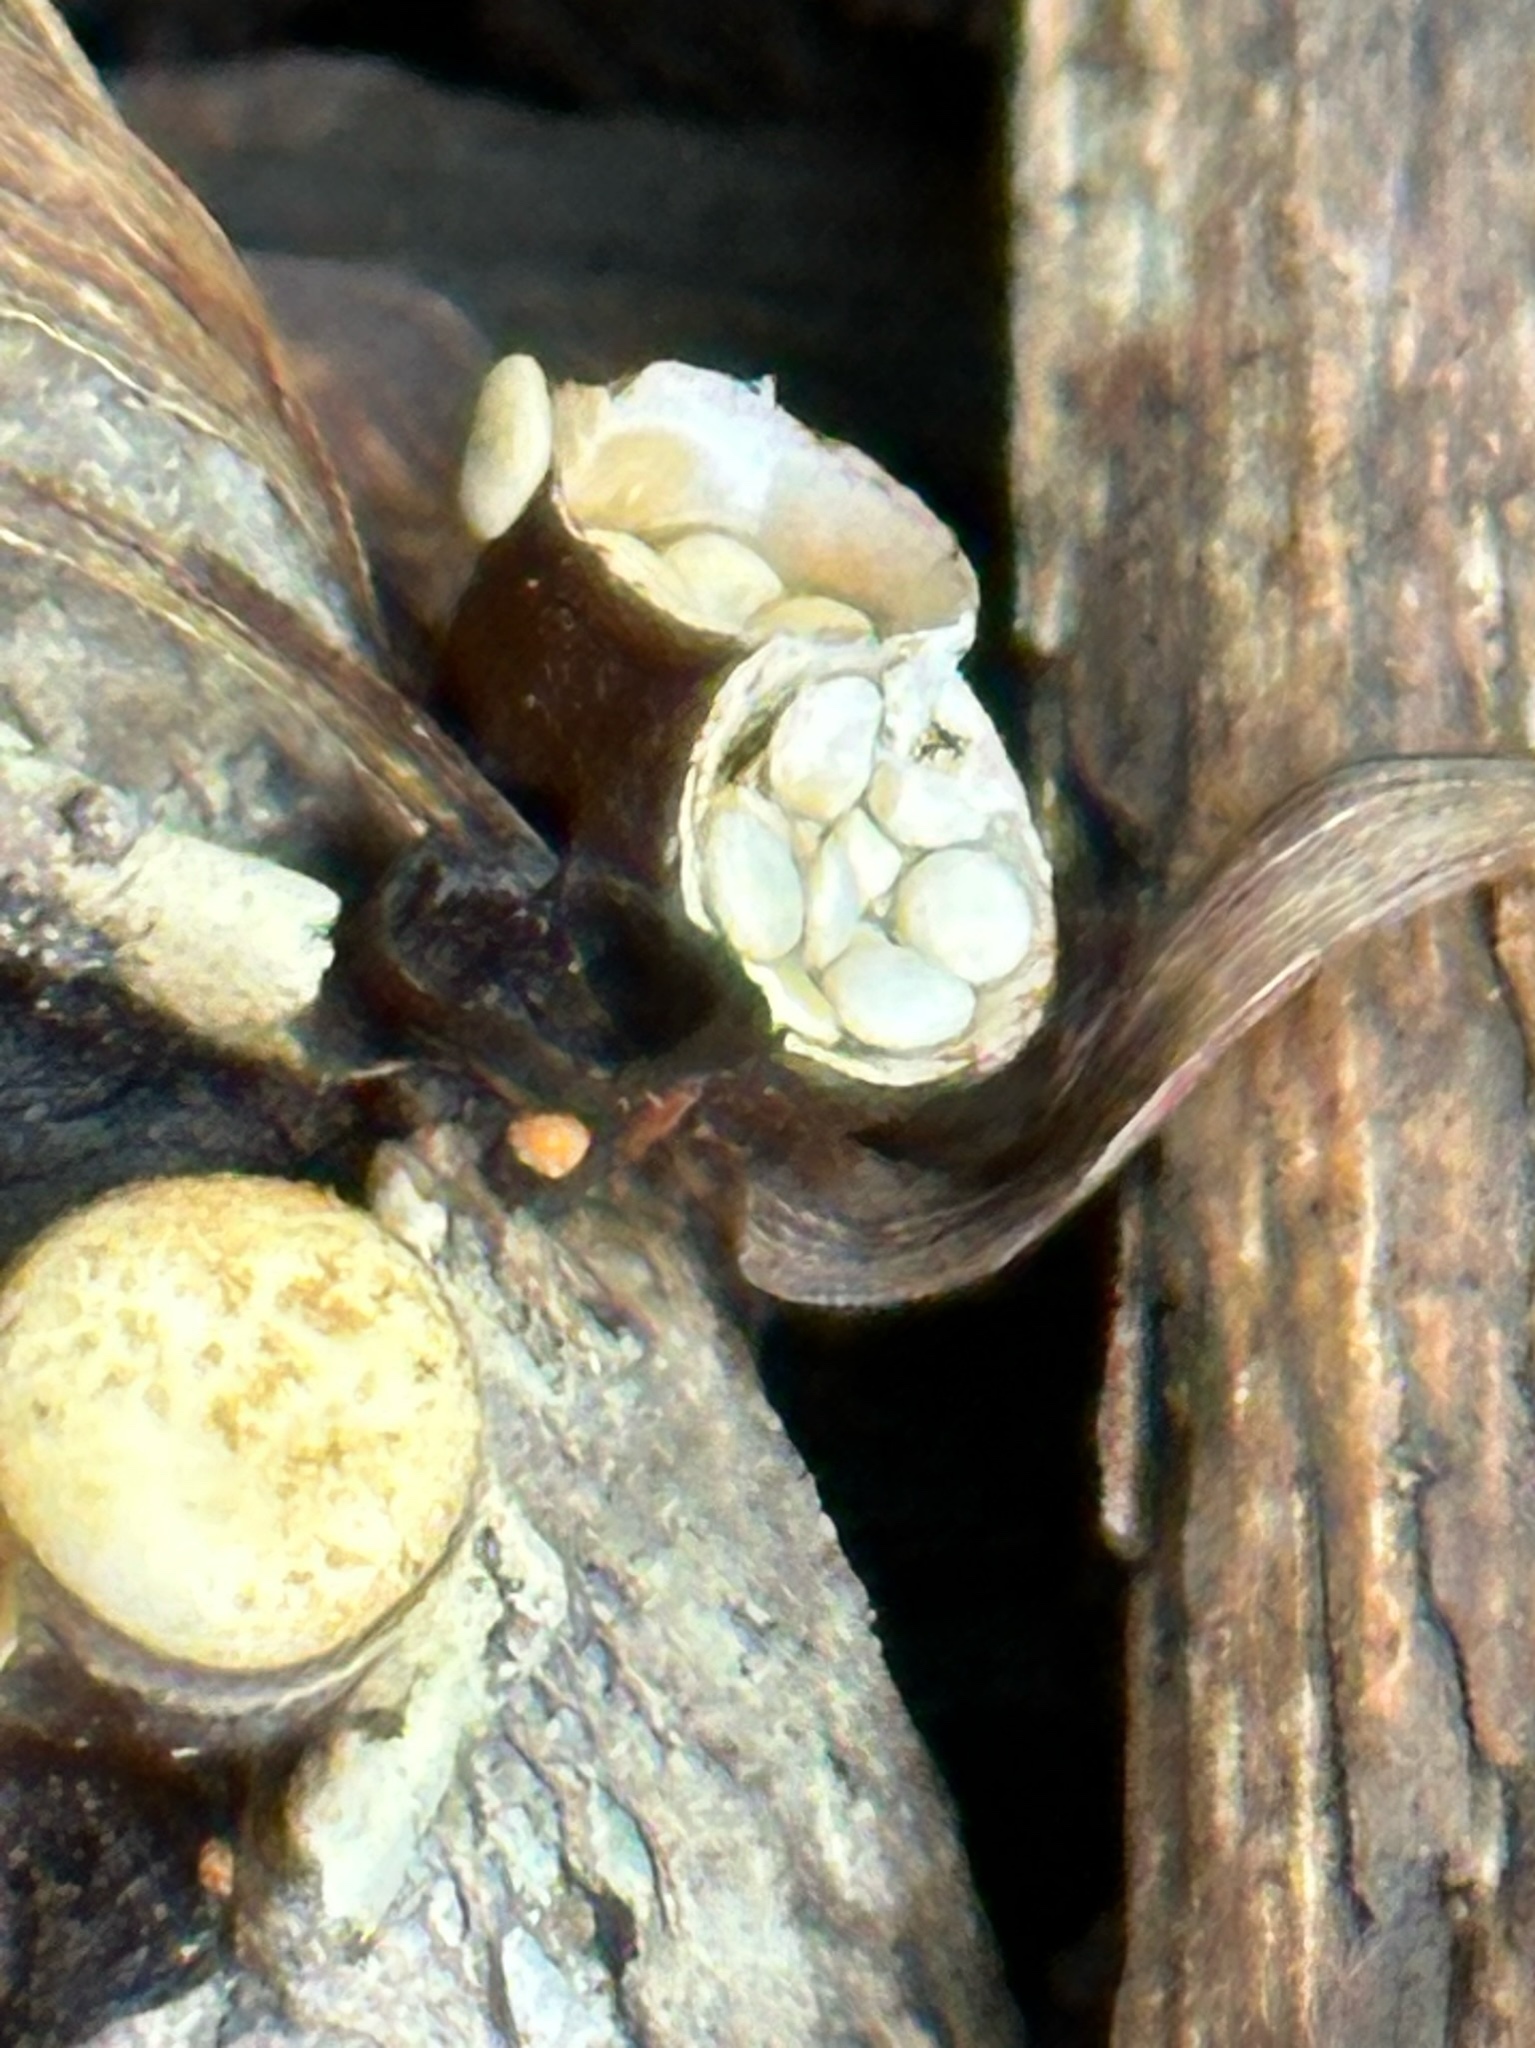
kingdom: Fungi
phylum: Basidiomycota
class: Agaricomycetes
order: Agaricales
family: Nidulariaceae
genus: Crucibulum
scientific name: Crucibulum laeve
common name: Common bird's nest
